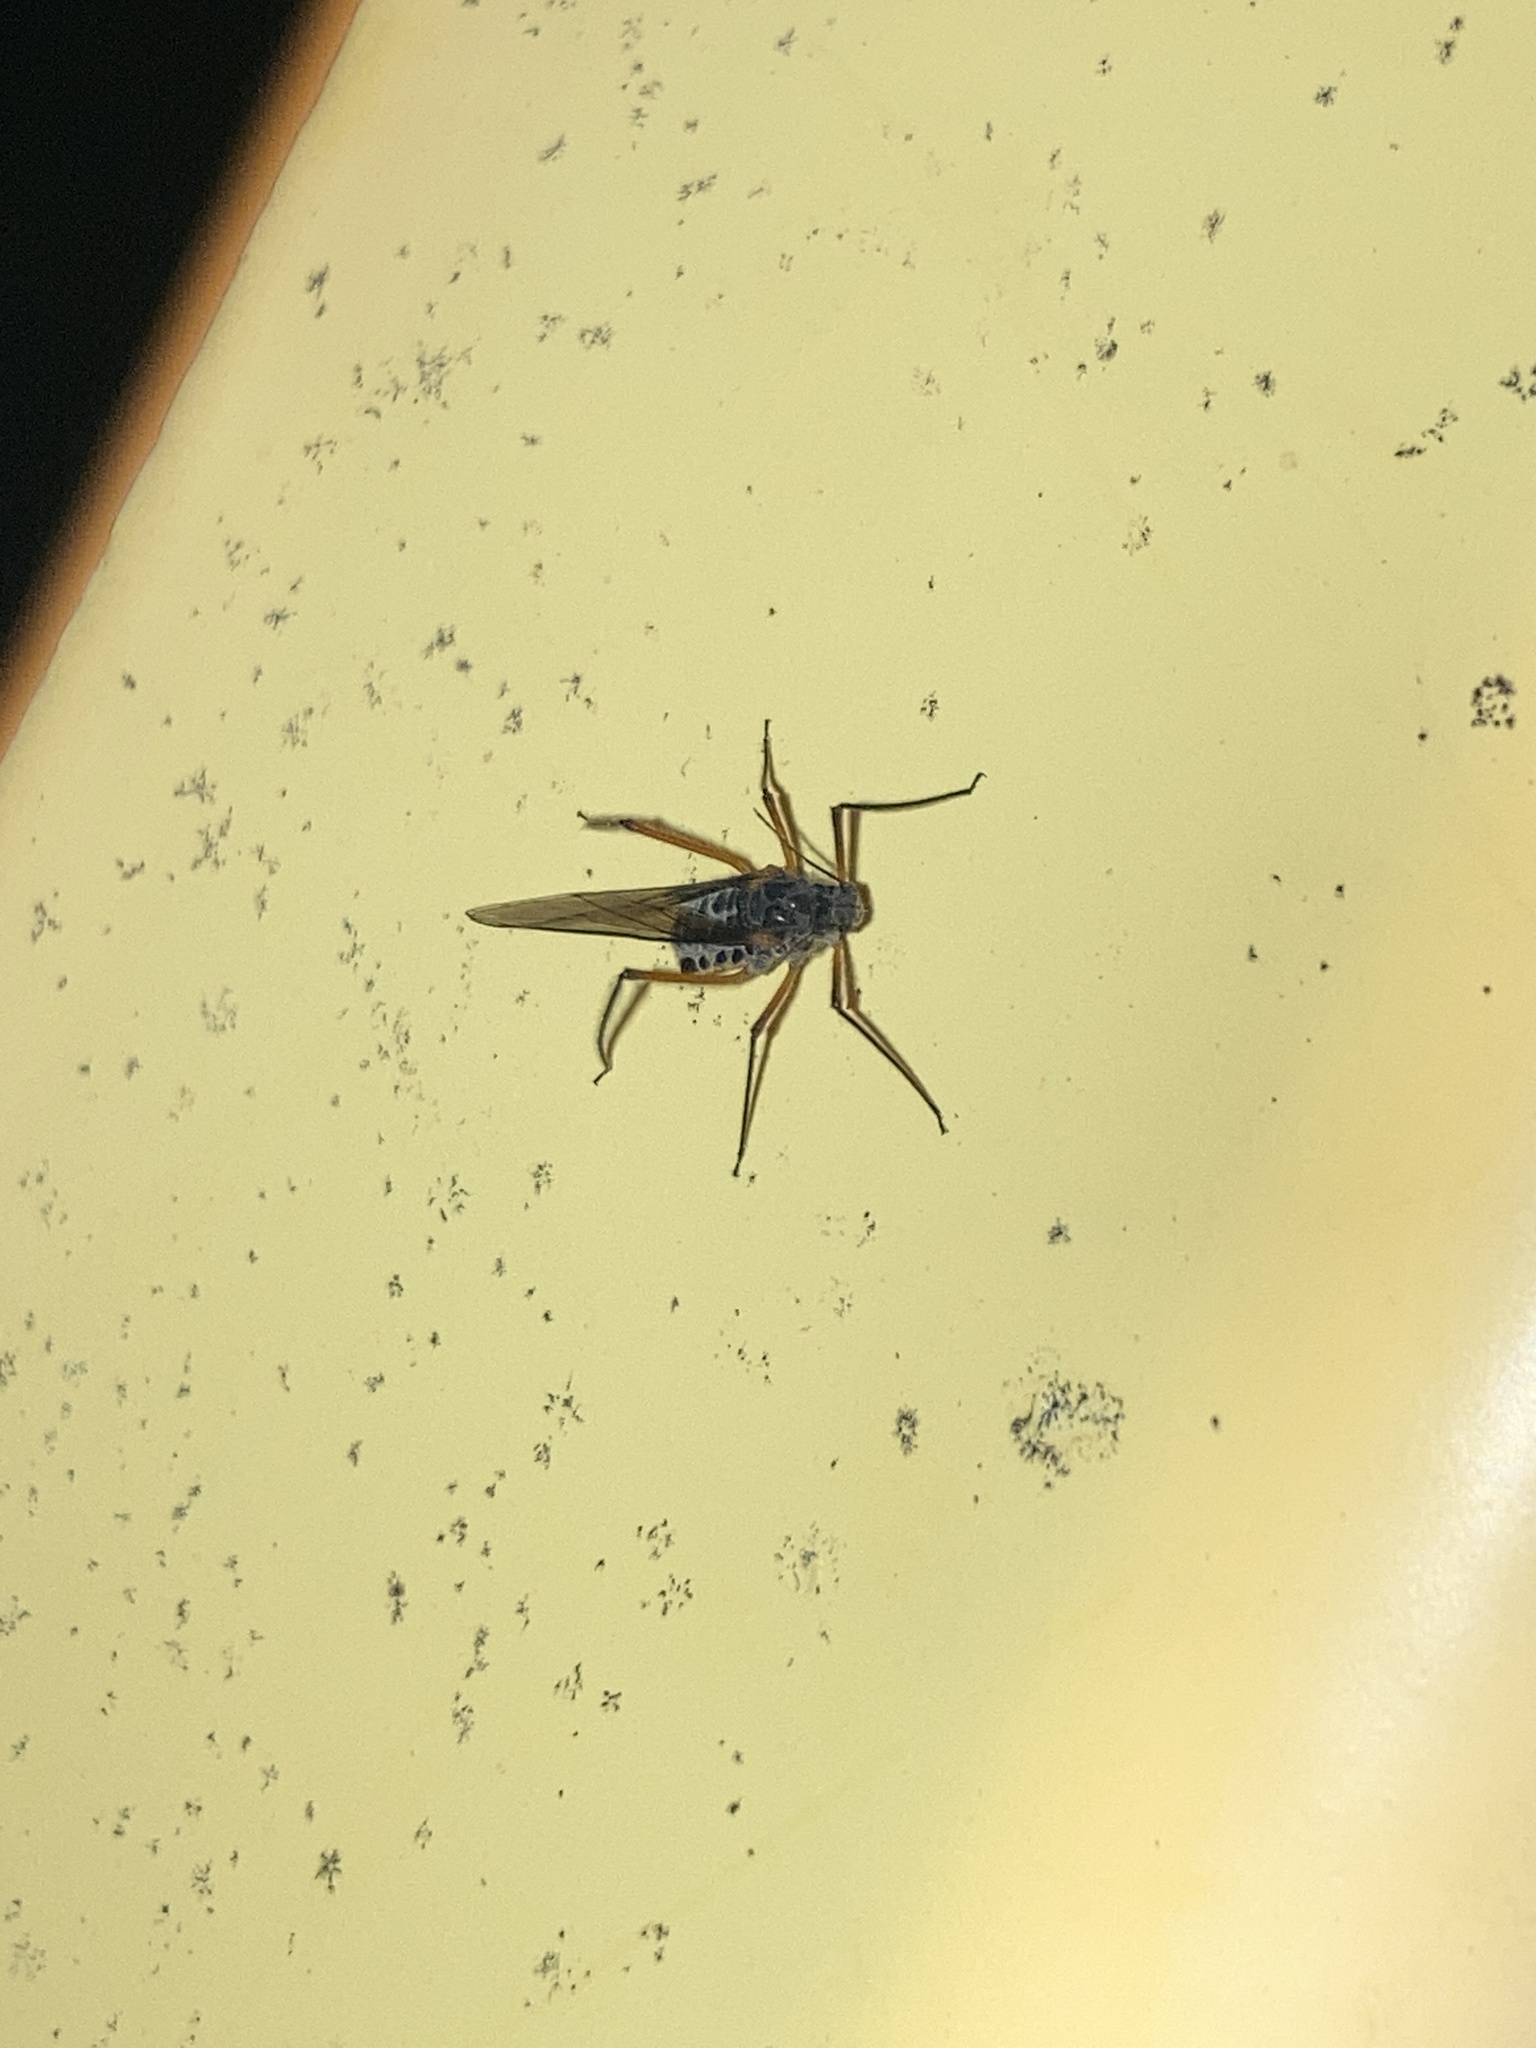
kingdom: Animalia
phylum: Arthropoda
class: Insecta
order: Hemiptera
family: Aphididae
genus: Longistigma
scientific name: Longistigma caryae
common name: Giant bark aphid
